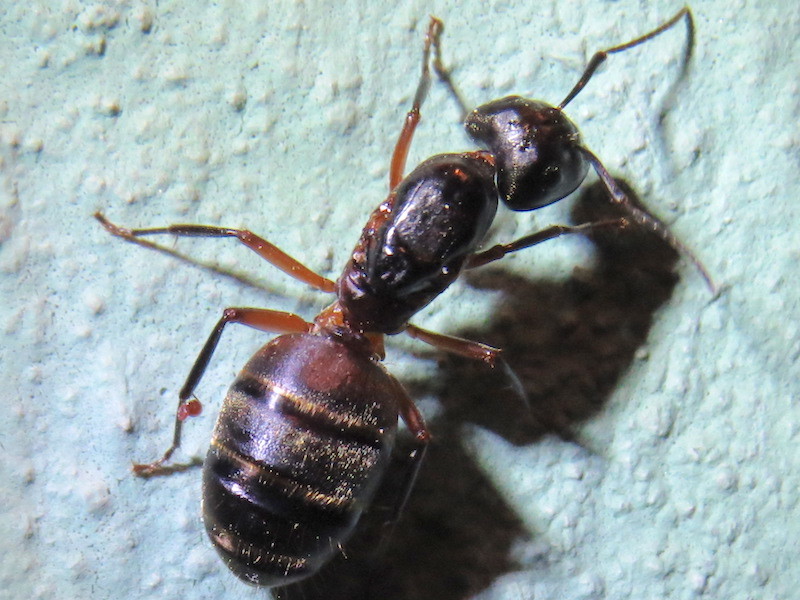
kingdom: Animalia
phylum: Arthropoda
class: Insecta
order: Hymenoptera
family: Formicidae
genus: Camponotus
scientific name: Camponotus chromaiodes
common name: Red carpenter ant
